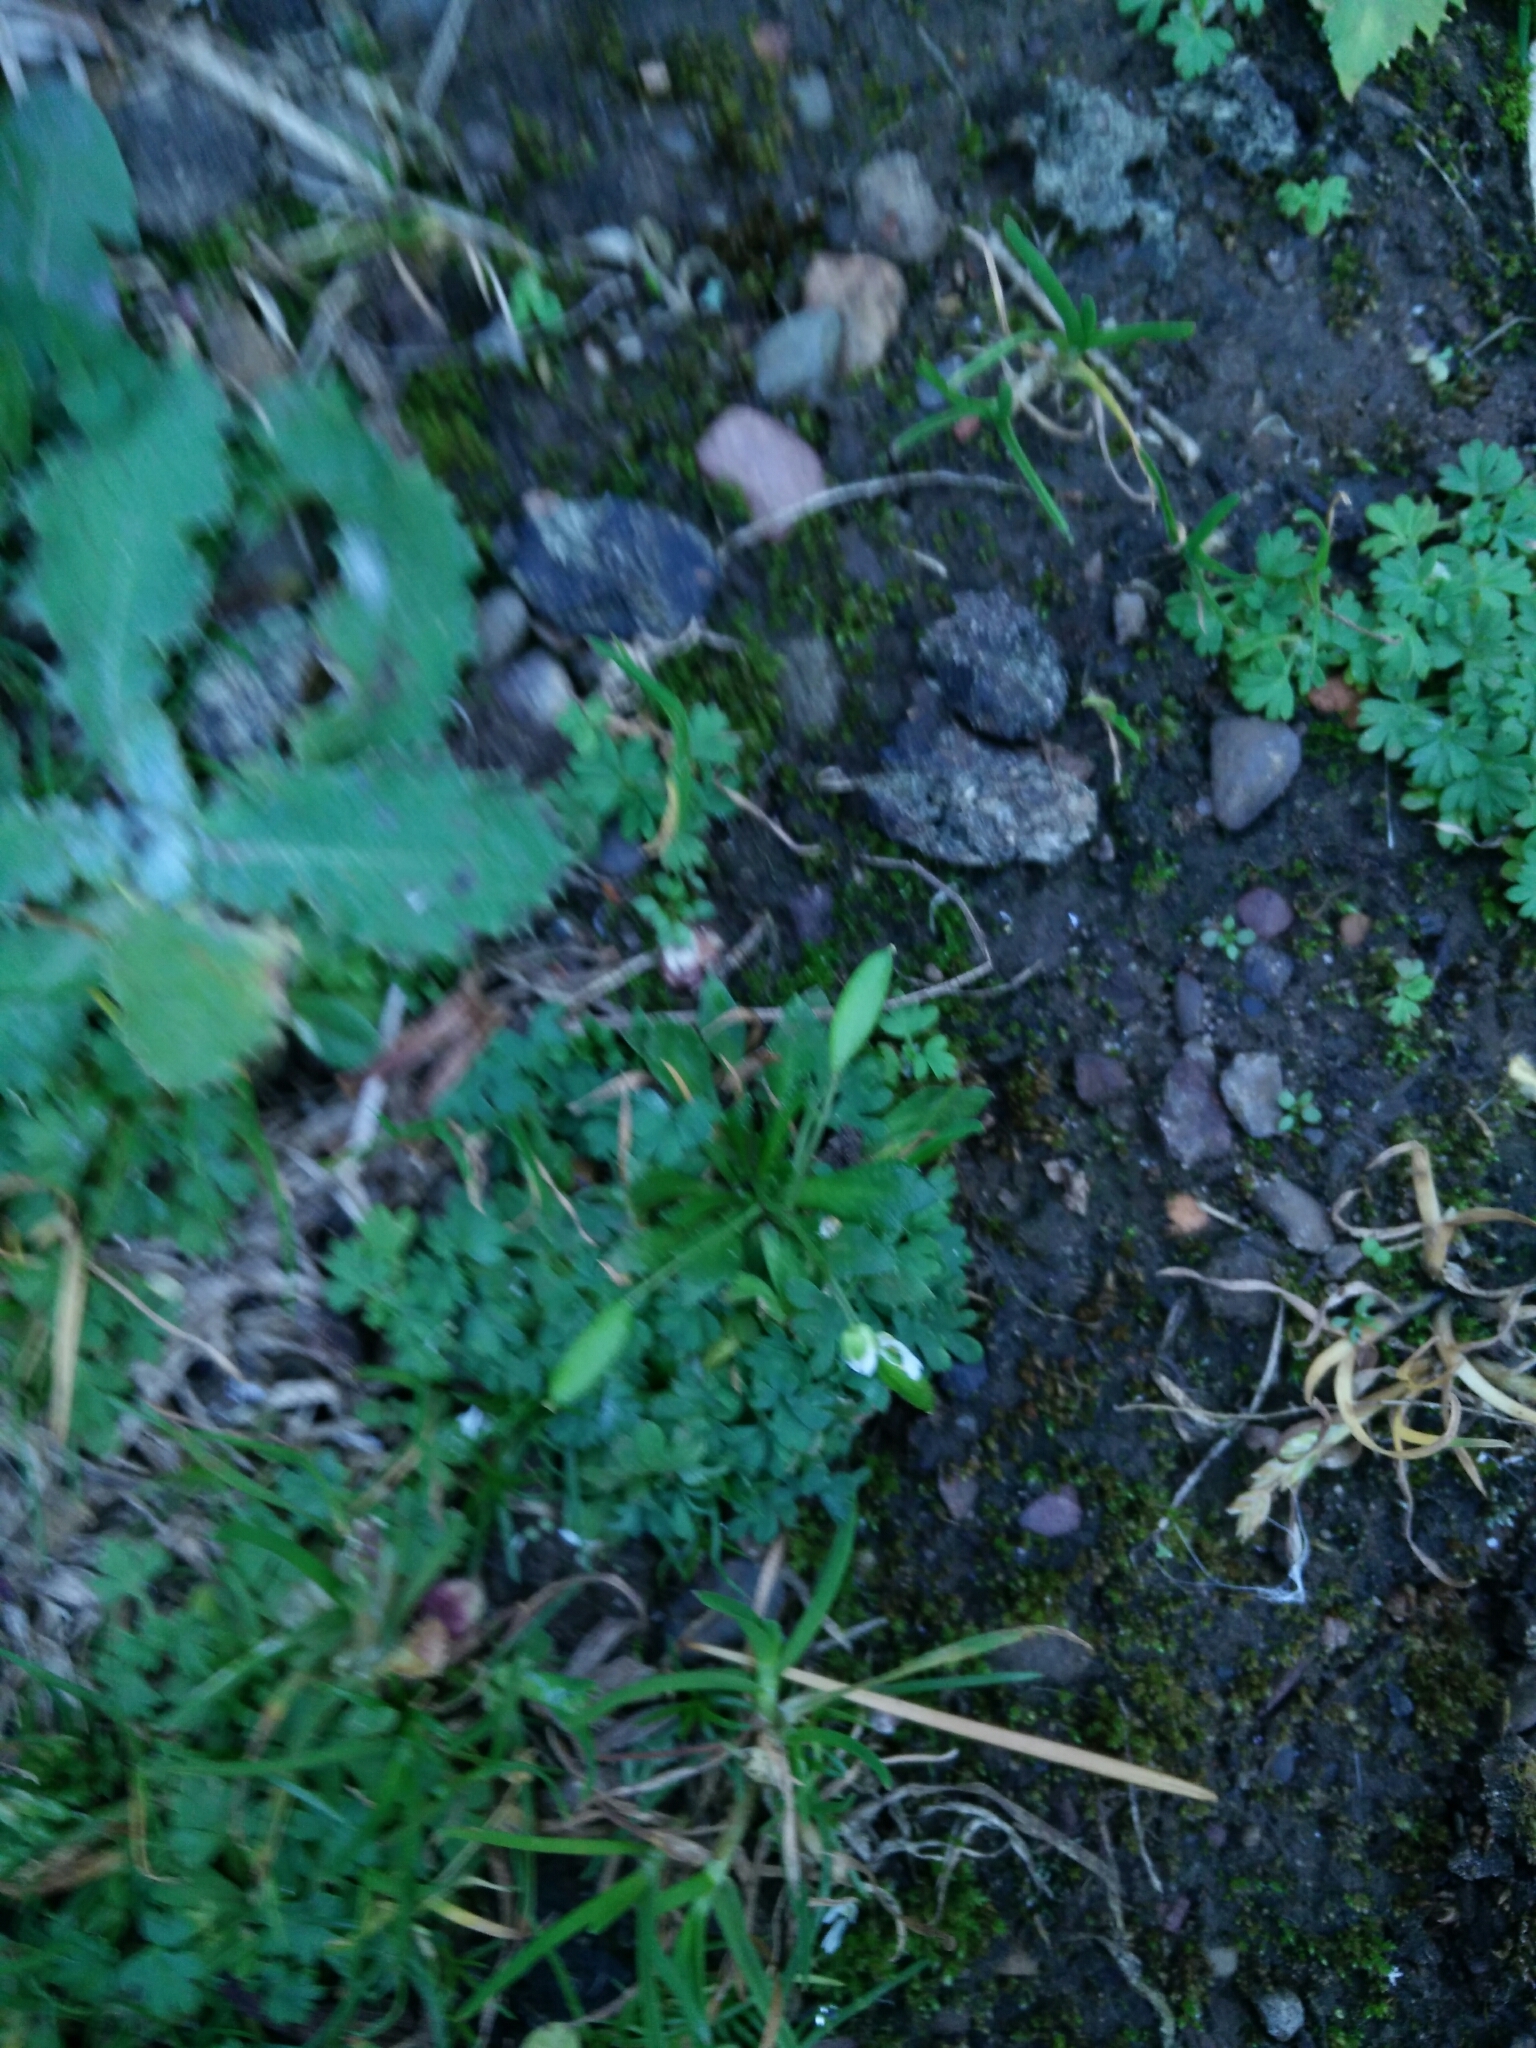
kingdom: Plantae
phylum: Tracheophyta
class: Magnoliopsida
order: Brassicales
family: Brassicaceae
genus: Draba
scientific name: Draba verna
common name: Spring draba
